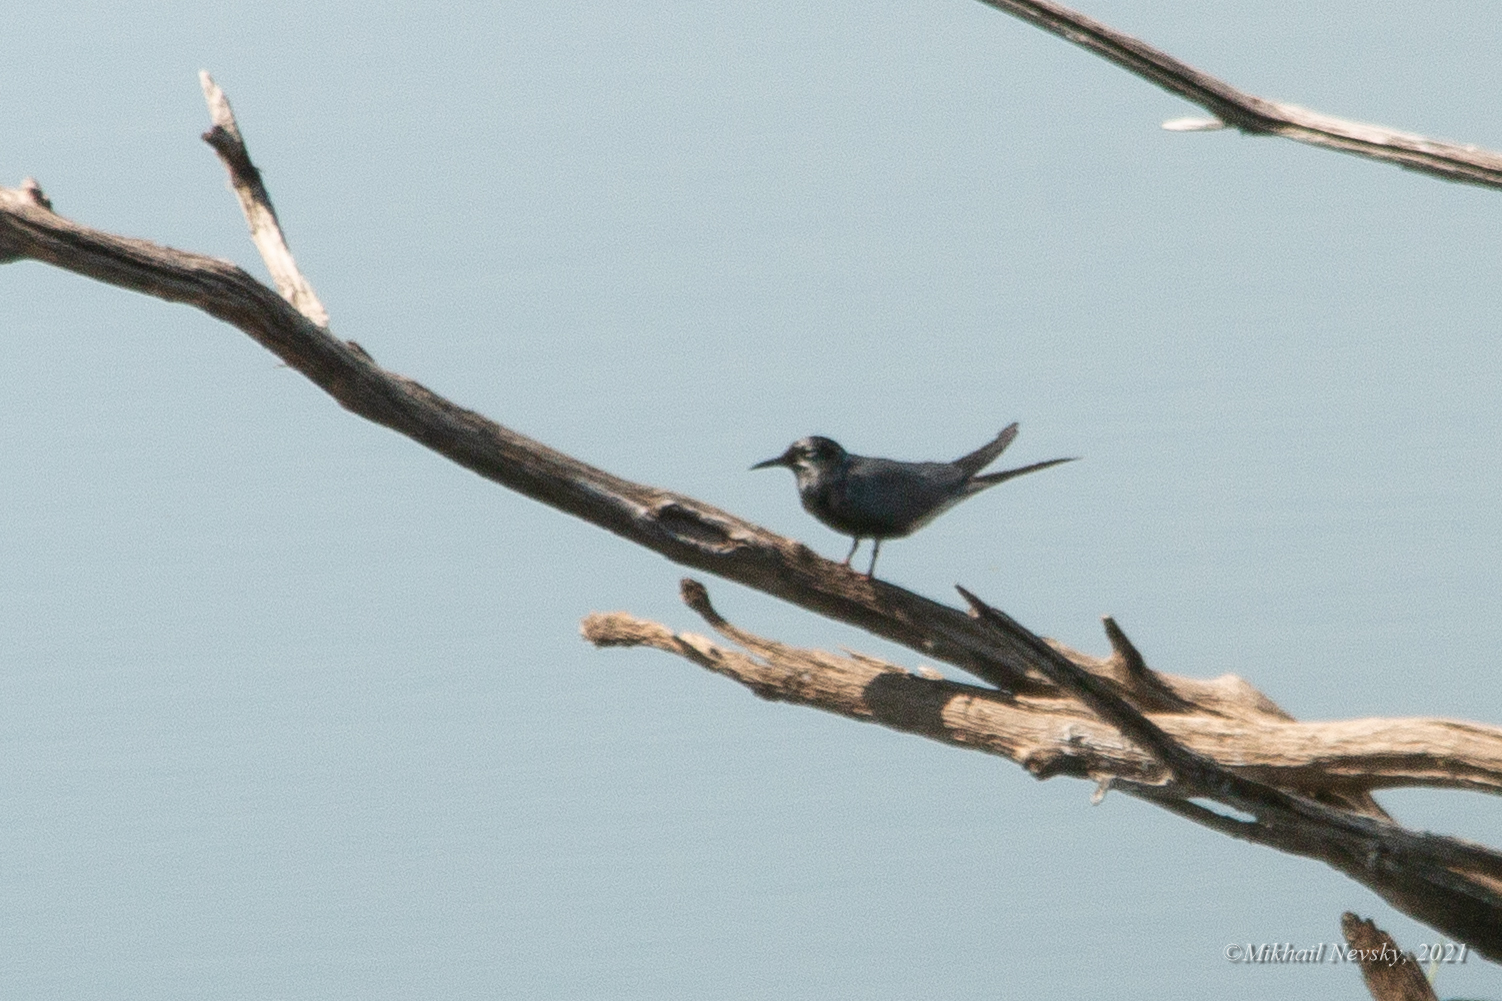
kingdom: Animalia
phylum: Chordata
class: Aves
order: Charadriiformes
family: Laridae
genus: Chlidonias
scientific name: Chlidonias niger
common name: Black tern
